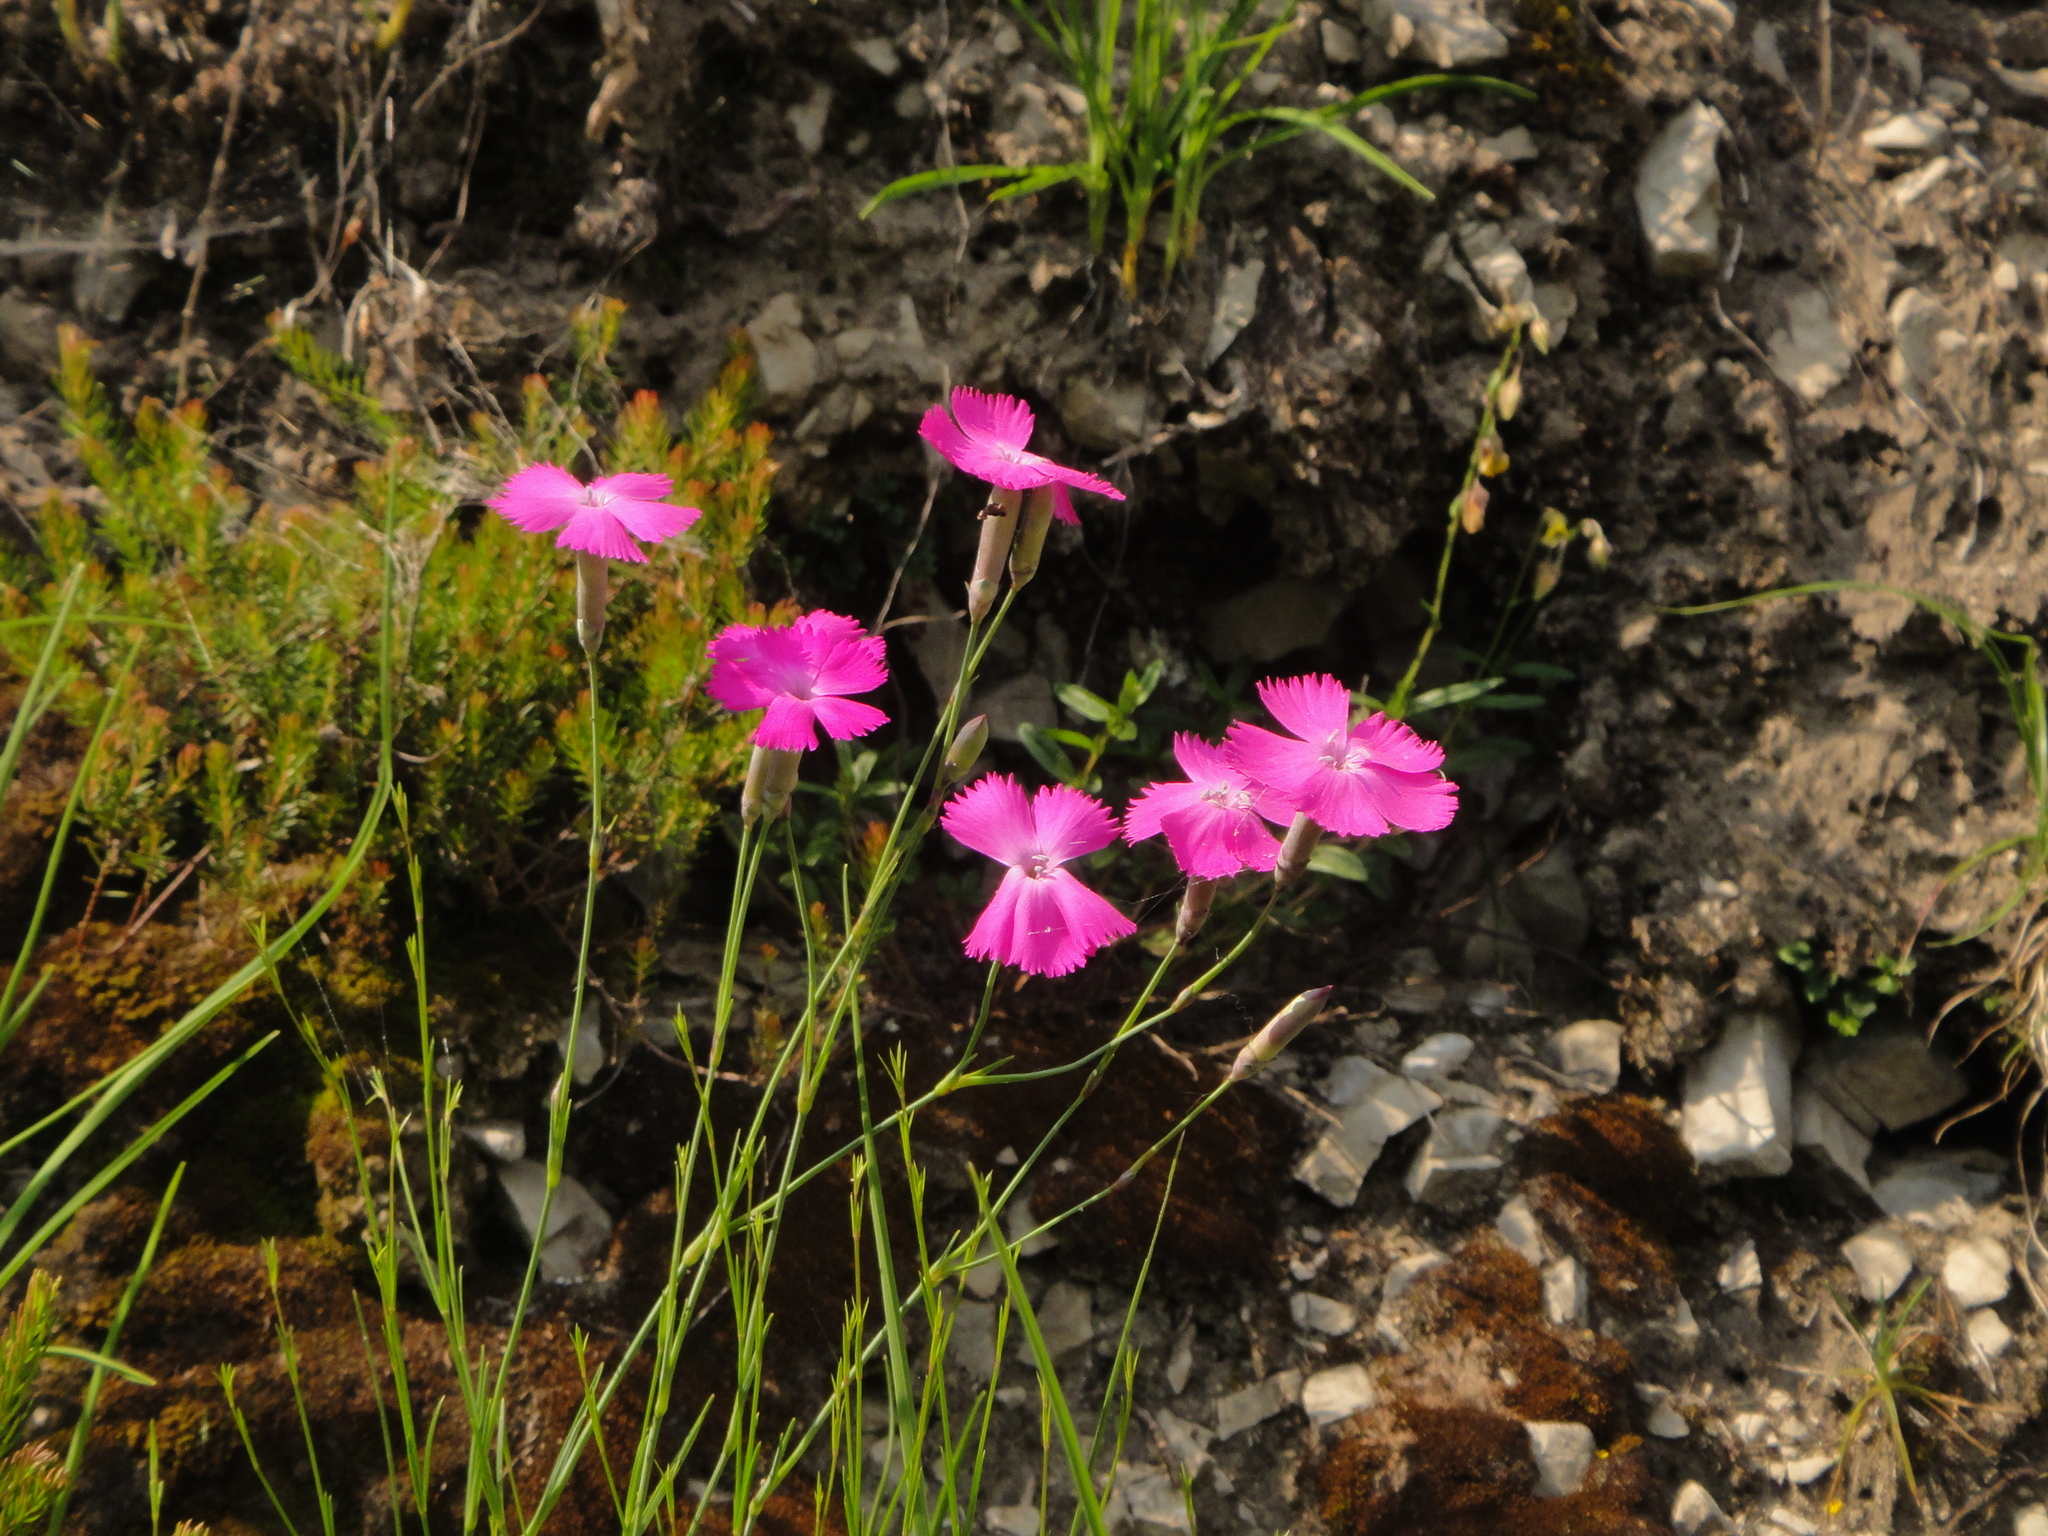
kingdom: Plantae
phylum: Tracheophyta
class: Magnoliopsida
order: Caryophyllales
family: Caryophyllaceae
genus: Dianthus
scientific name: Dianthus sylvestris
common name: Wood pink
